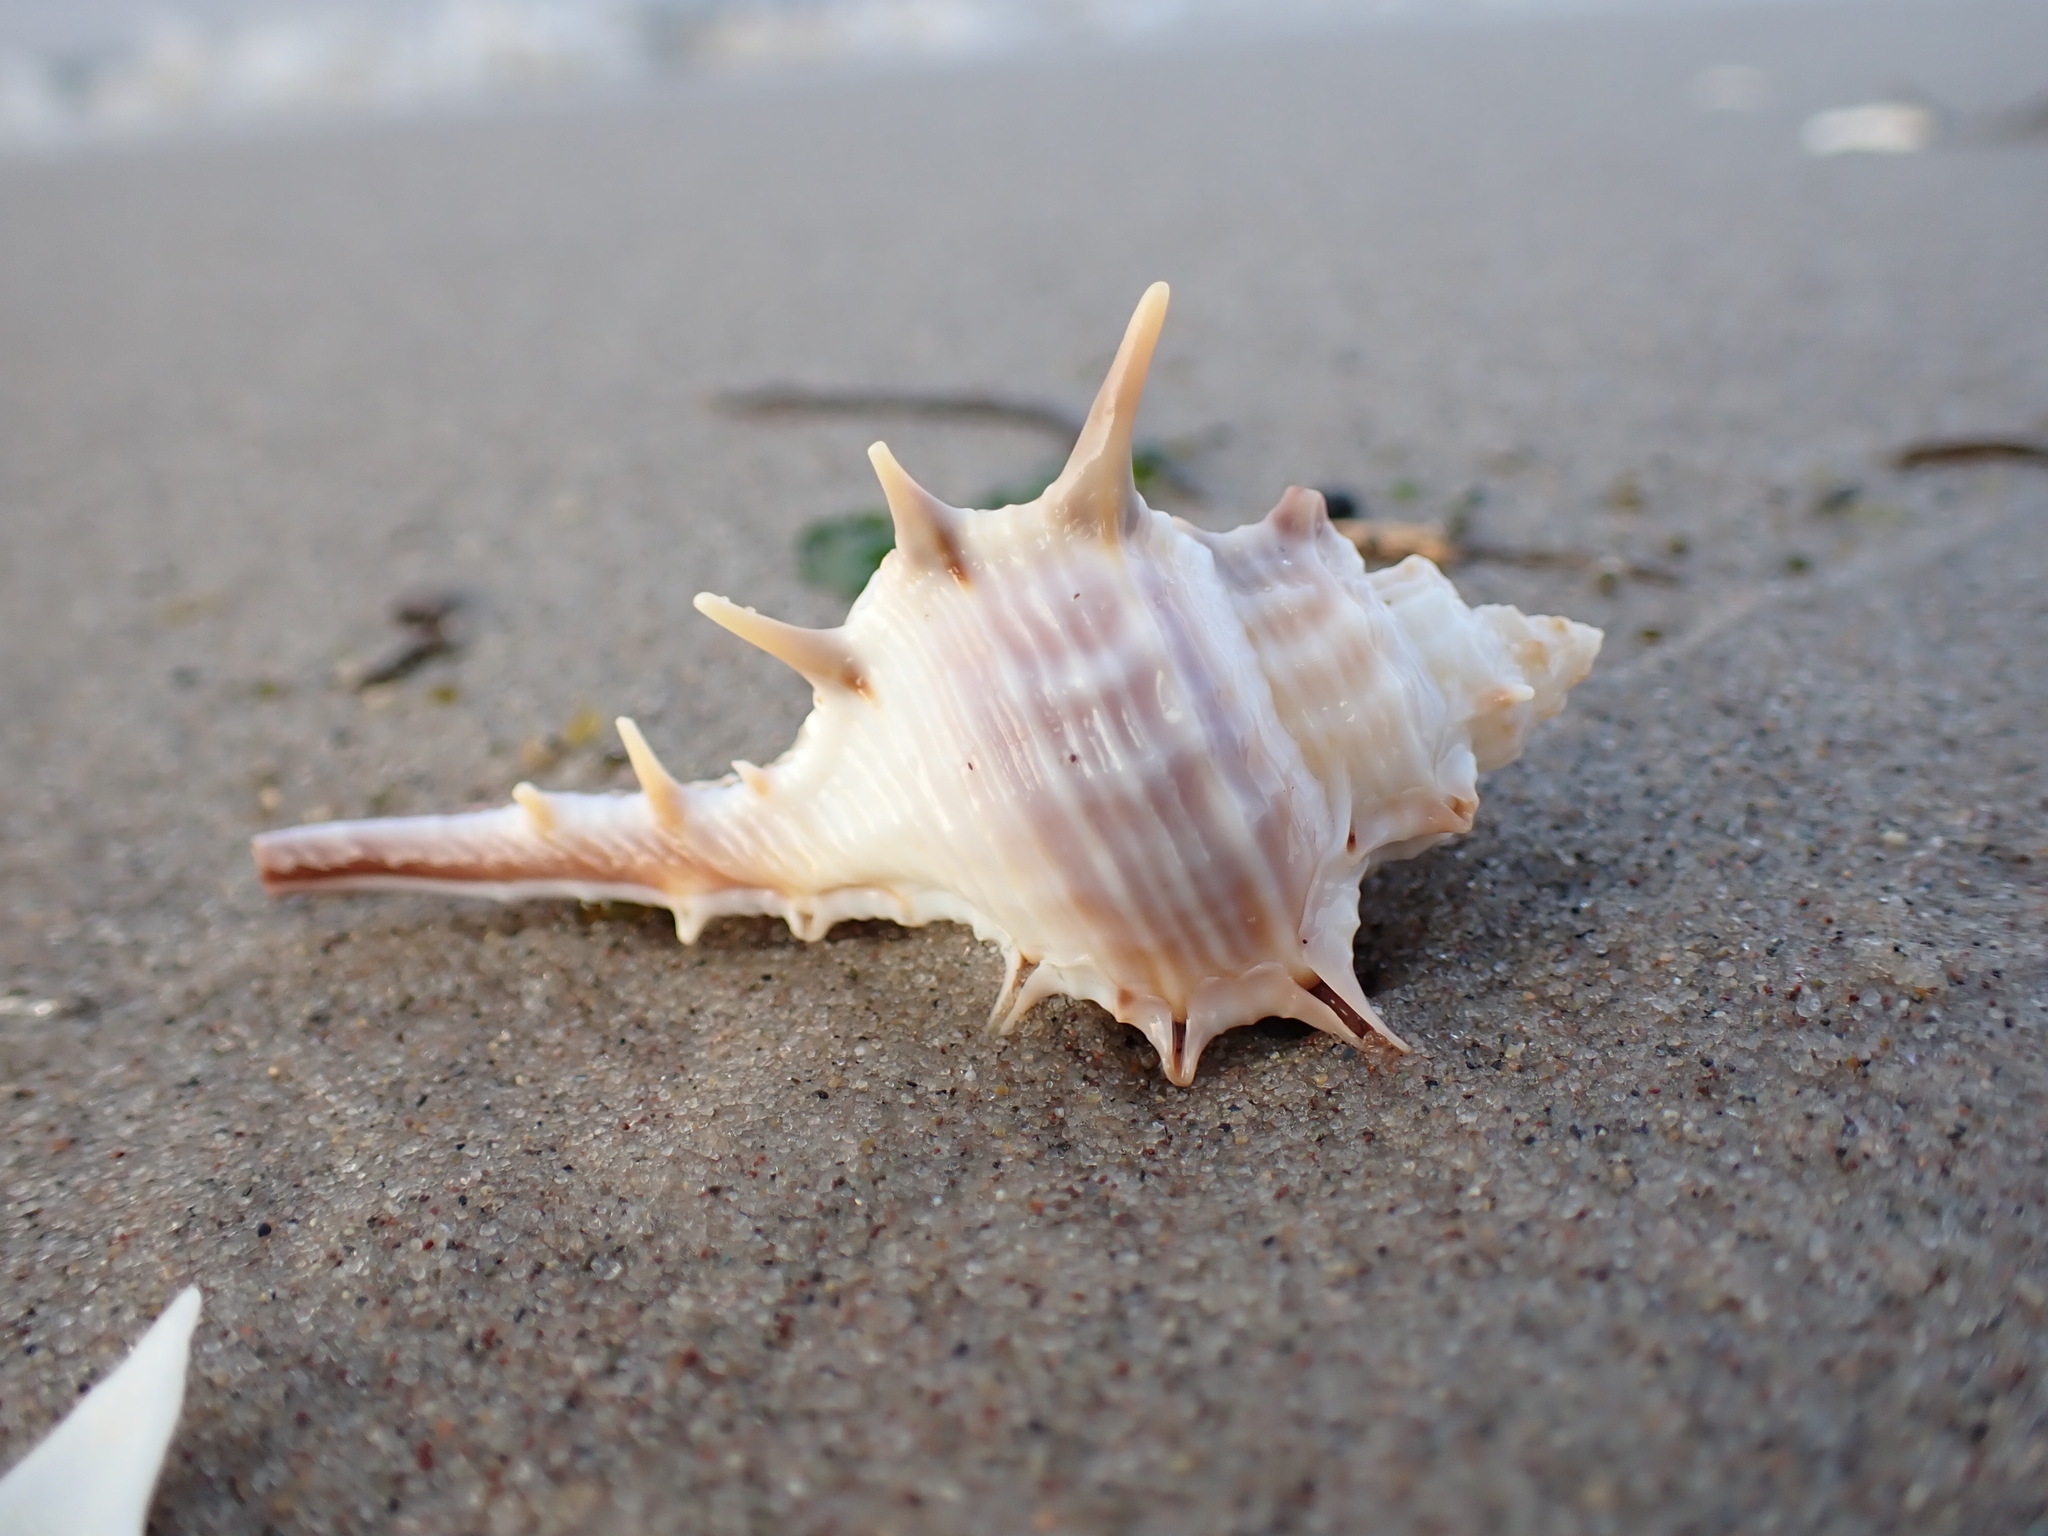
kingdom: Animalia
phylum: Mollusca
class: Gastropoda
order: Neogastropoda
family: Muricidae
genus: Murex
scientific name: Murex trapa
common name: Rare spined murex
